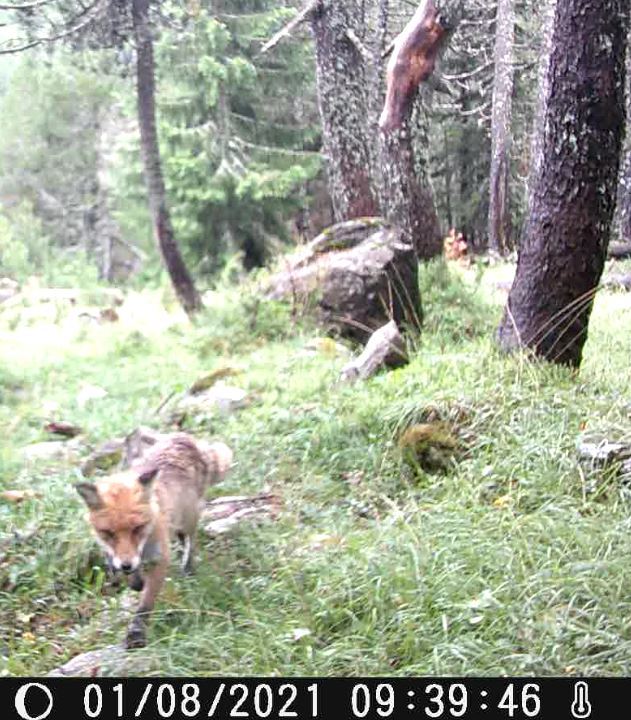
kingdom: Animalia
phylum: Chordata
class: Mammalia
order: Carnivora
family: Canidae
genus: Vulpes
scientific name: Vulpes vulpes
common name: Red fox
